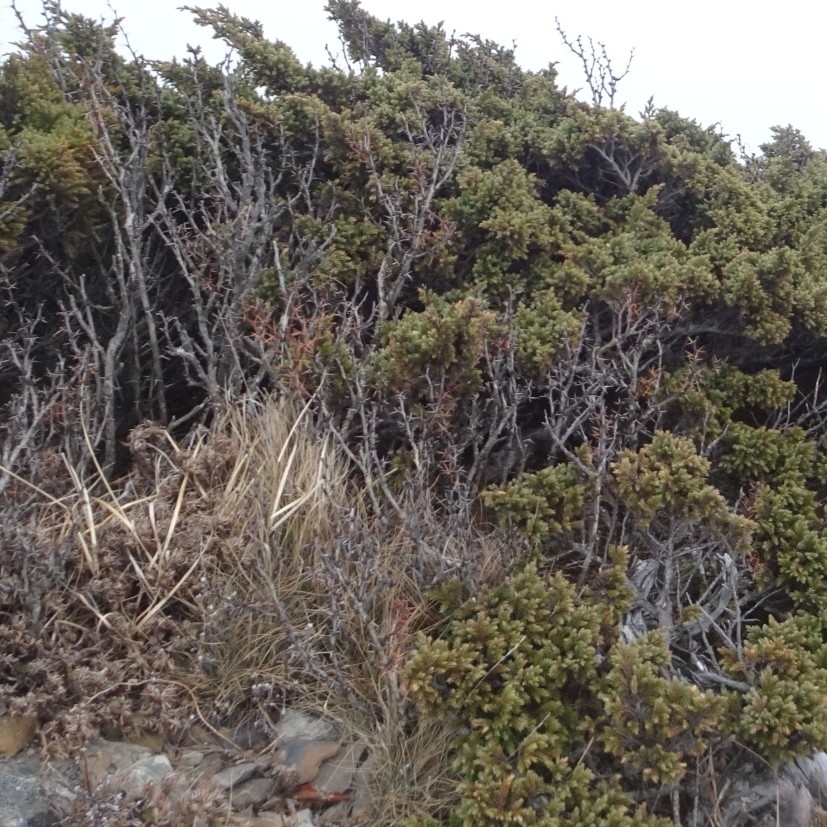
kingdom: Plantae
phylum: Tracheophyta
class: Magnoliopsida
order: Ranunculales
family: Berberidaceae
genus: Berberis
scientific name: Berberis morrisonensis
